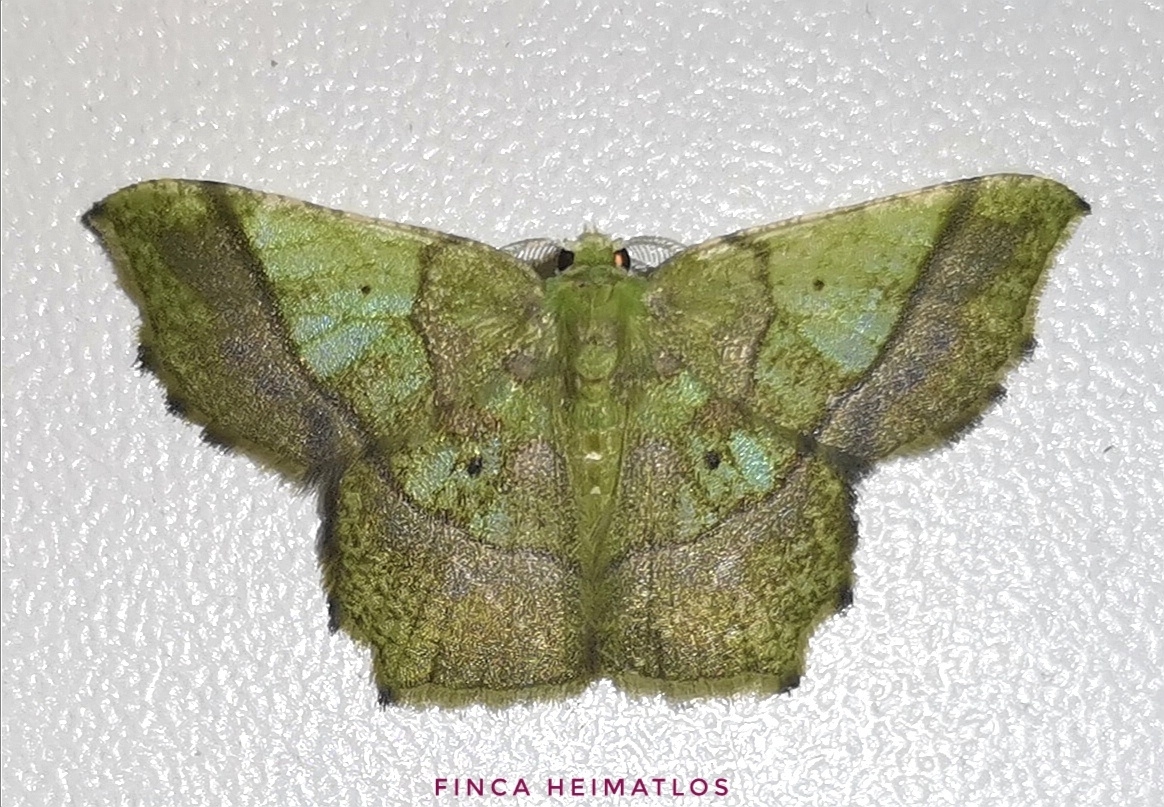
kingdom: Animalia
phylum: Arthropoda
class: Insecta
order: Lepidoptera
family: Geometridae
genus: Neagathia
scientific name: Neagathia corruptata
